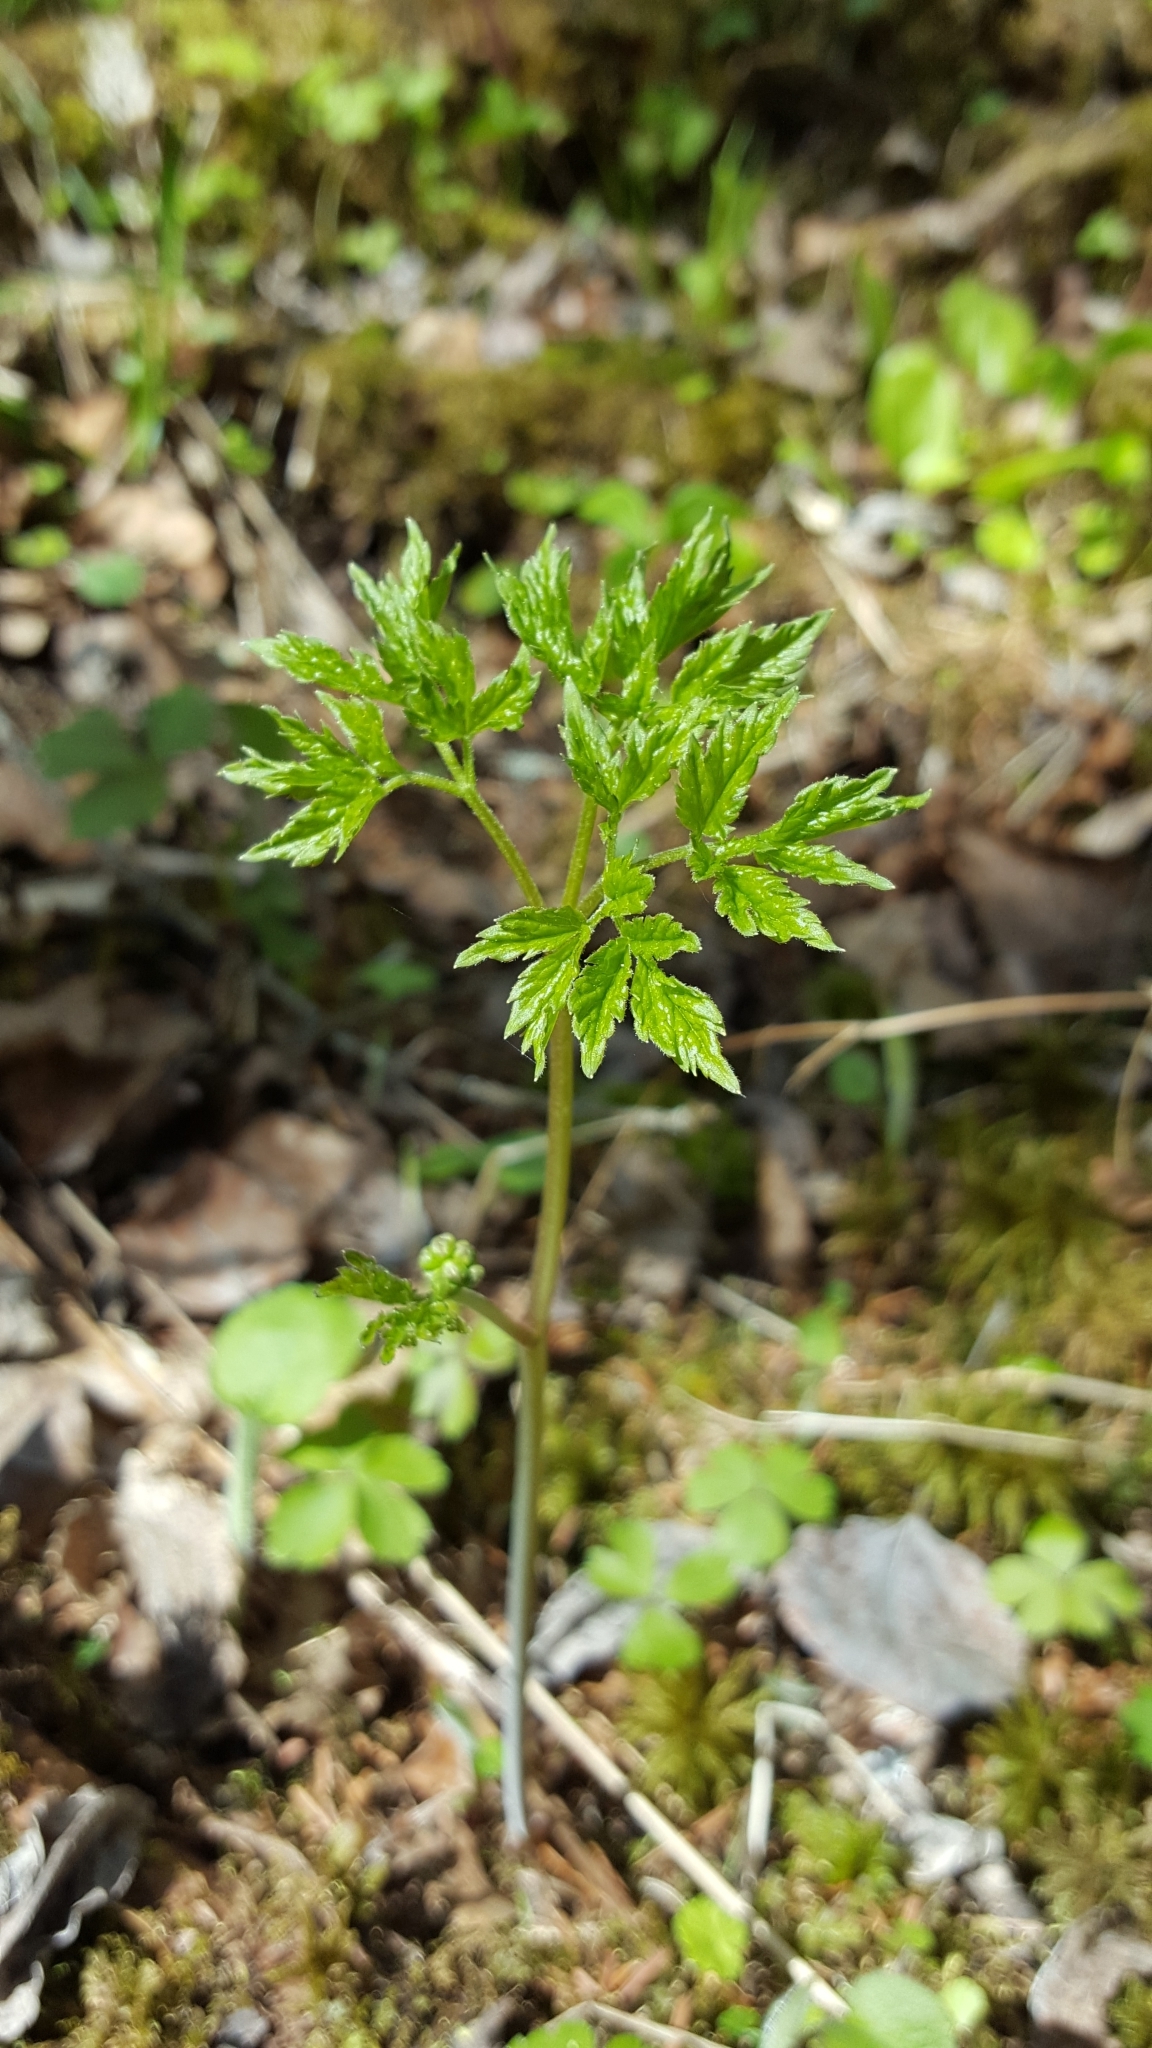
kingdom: Plantae
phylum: Tracheophyta
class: Magnoliopsida
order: Ranunculales
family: Ranunculaceae
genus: Actaea
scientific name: Actaea rubra
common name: Red baneberry
